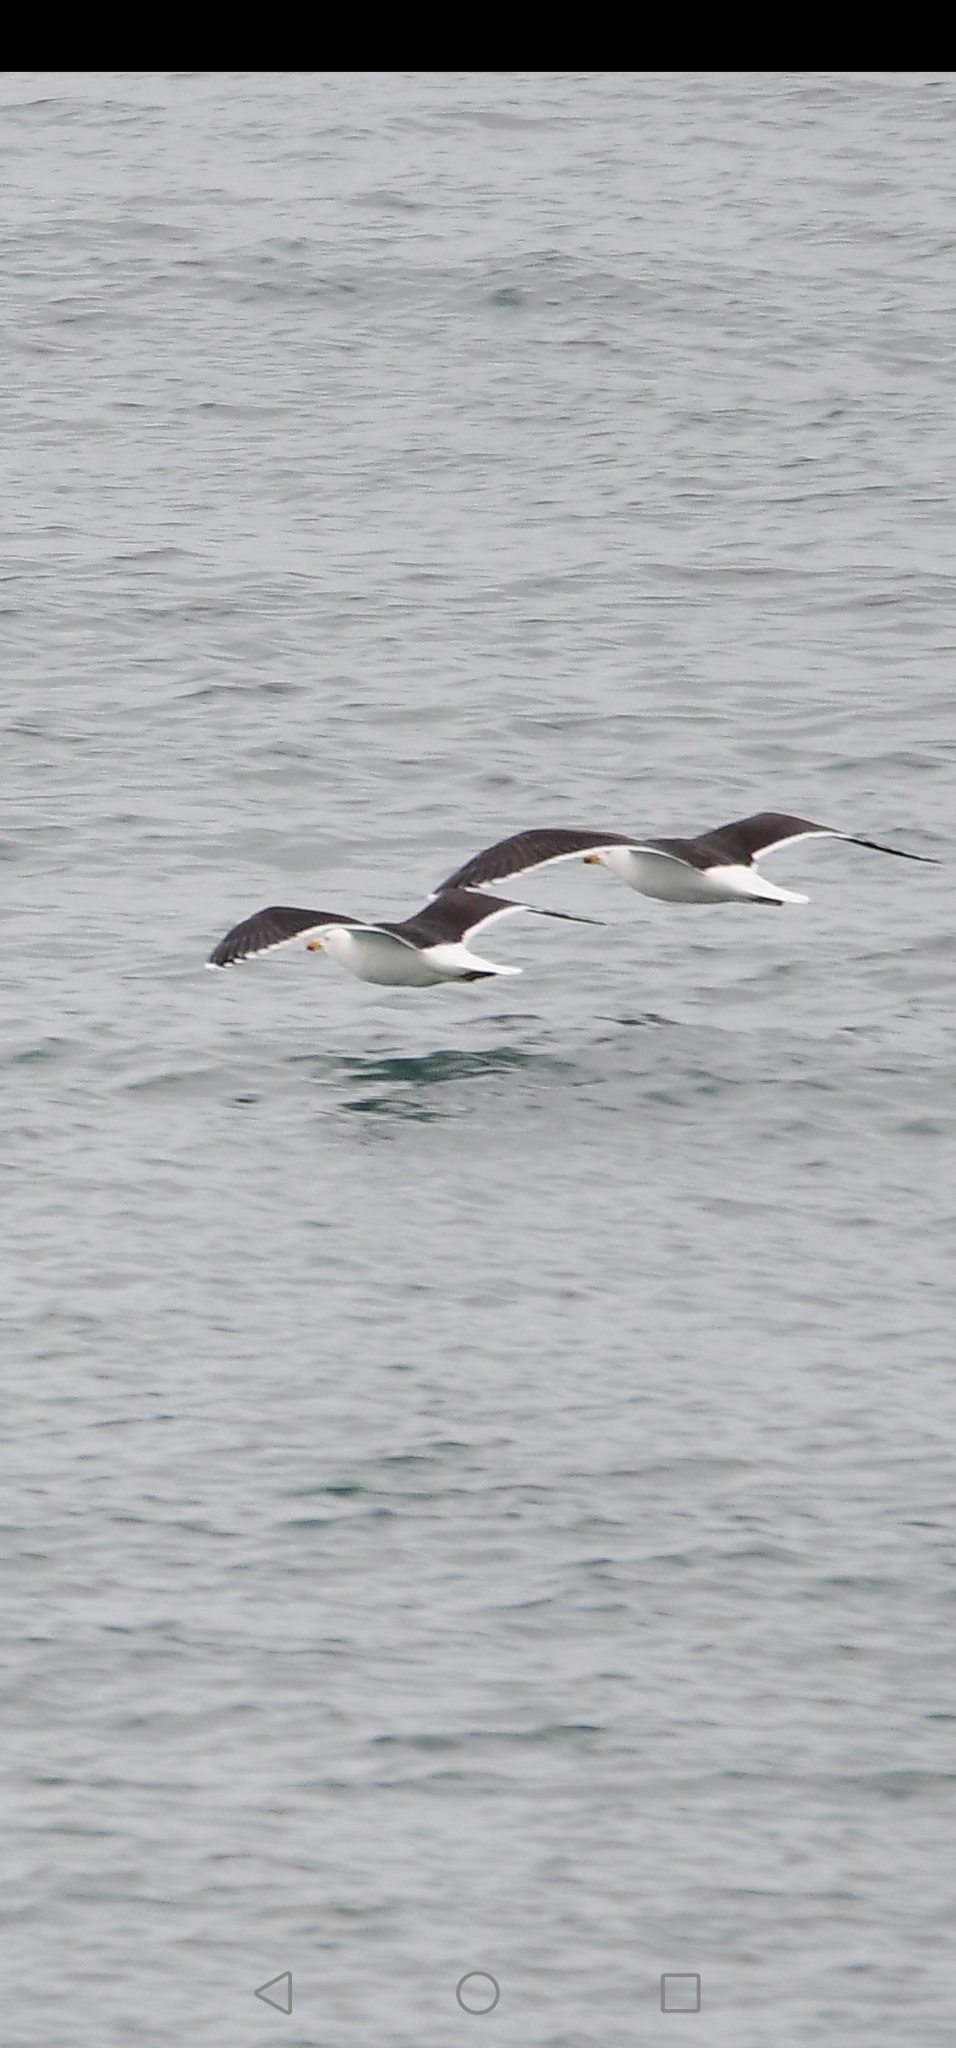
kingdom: Animalia
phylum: Chordata
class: Aves
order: Charadriiformes
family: Laridae
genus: Larus
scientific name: Larus marinus
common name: Great black-backed gull
